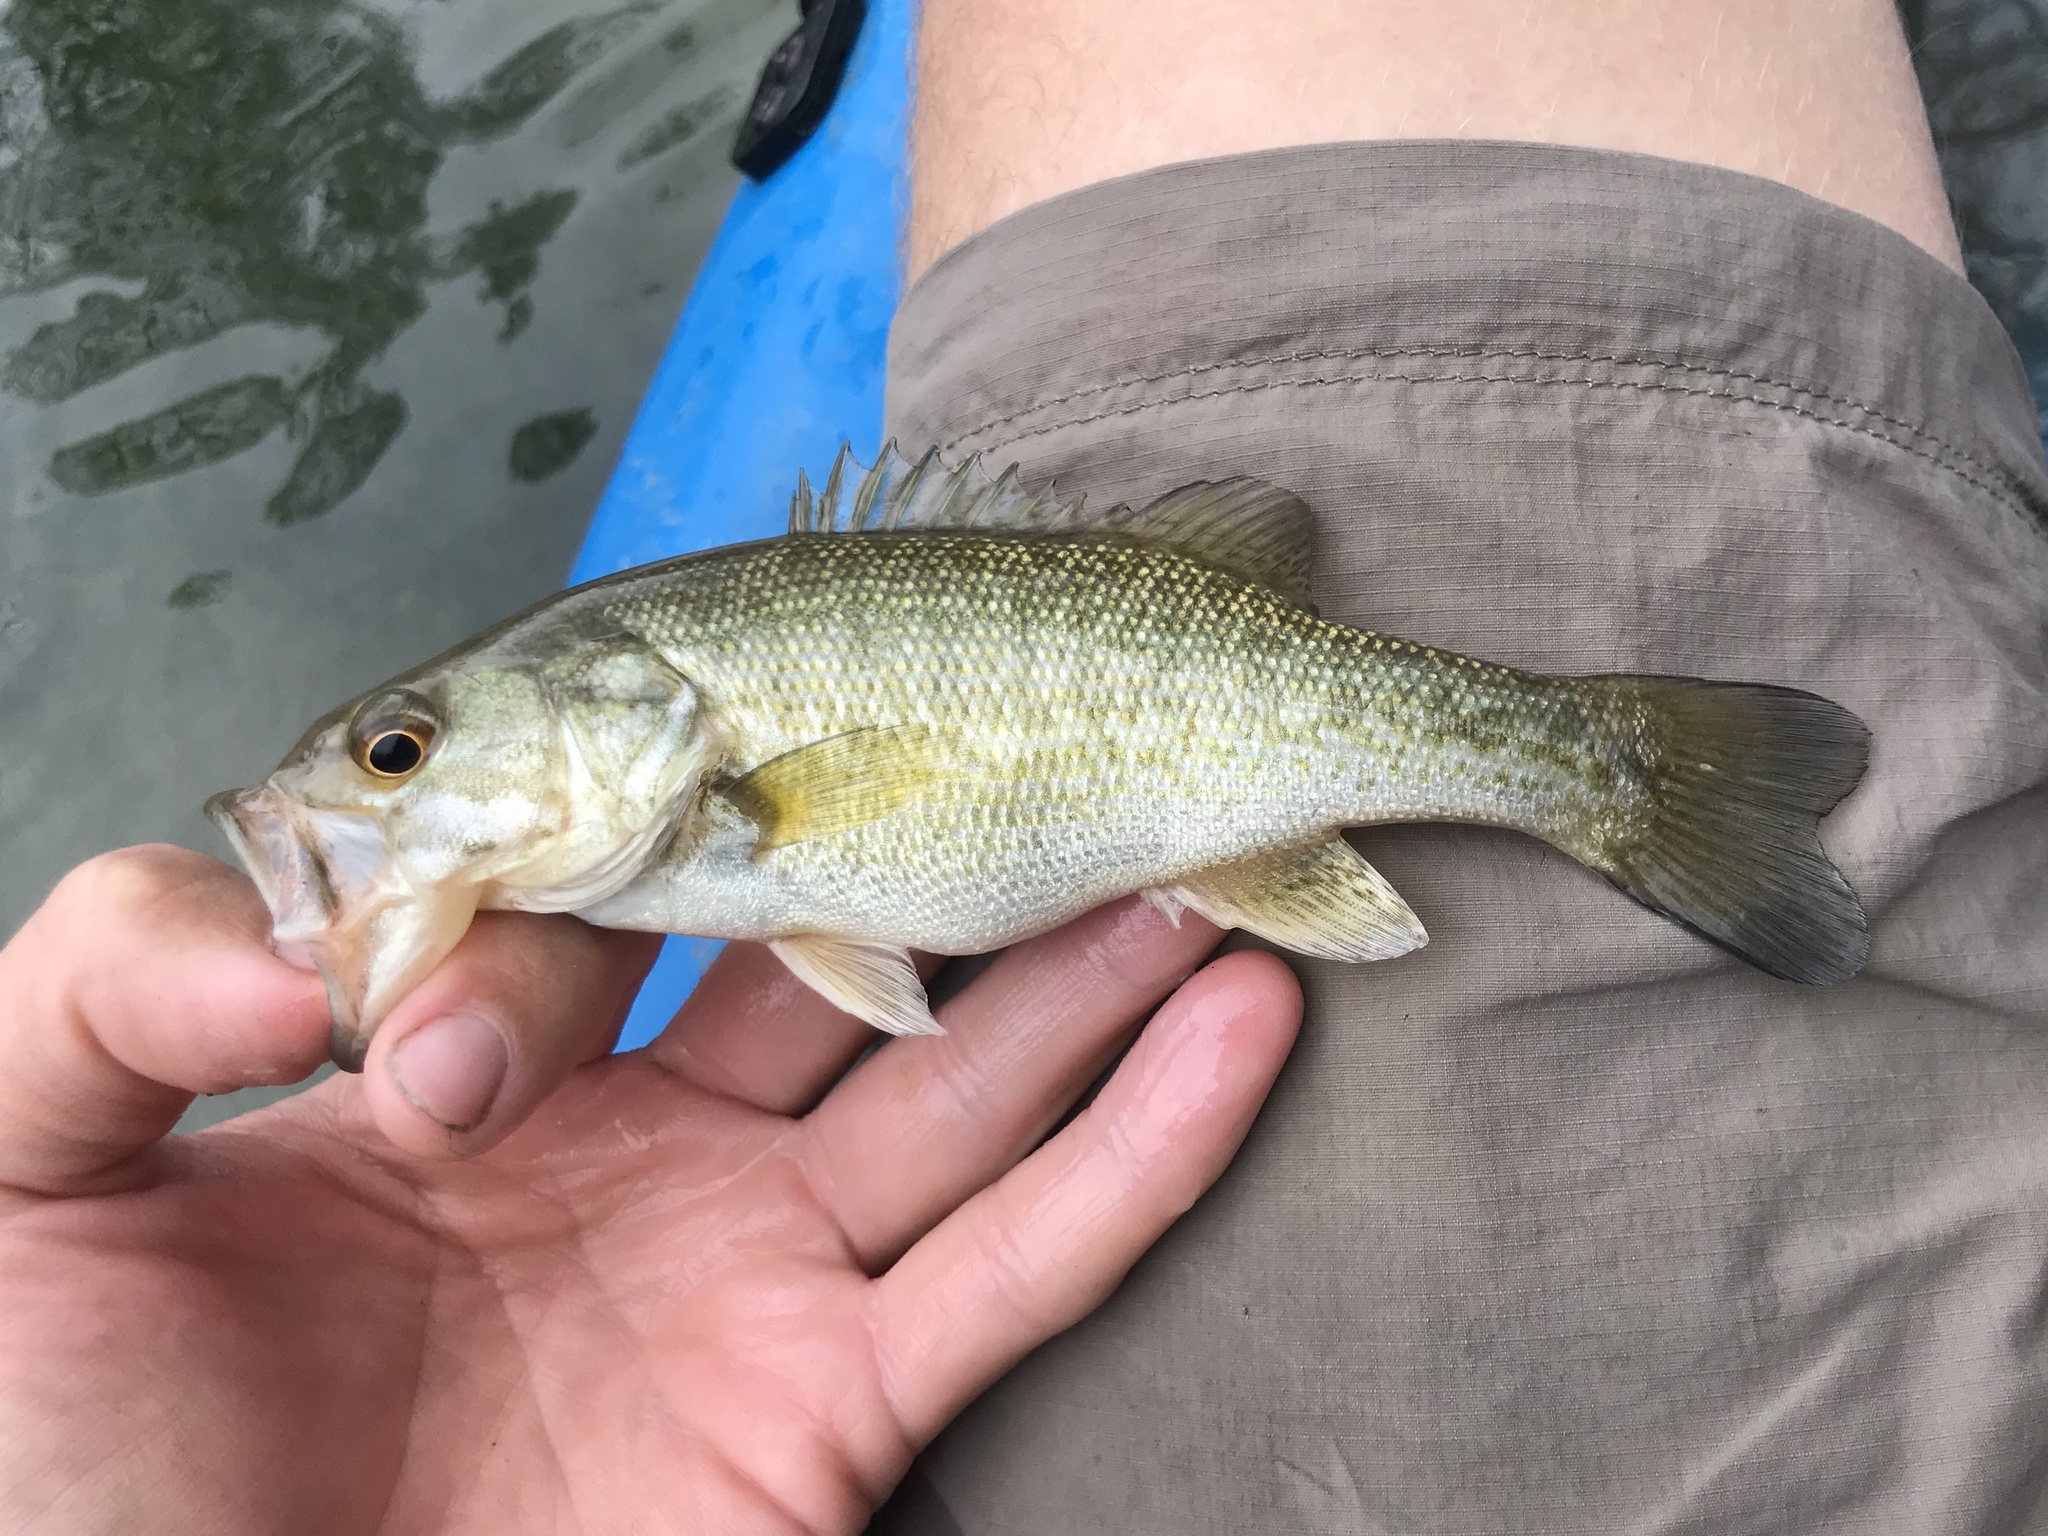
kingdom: Animalia
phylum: Chordata
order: Perciformes
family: Centrarchidae
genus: Micropterus
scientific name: Micropterus treculii
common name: Guadalupe bass
